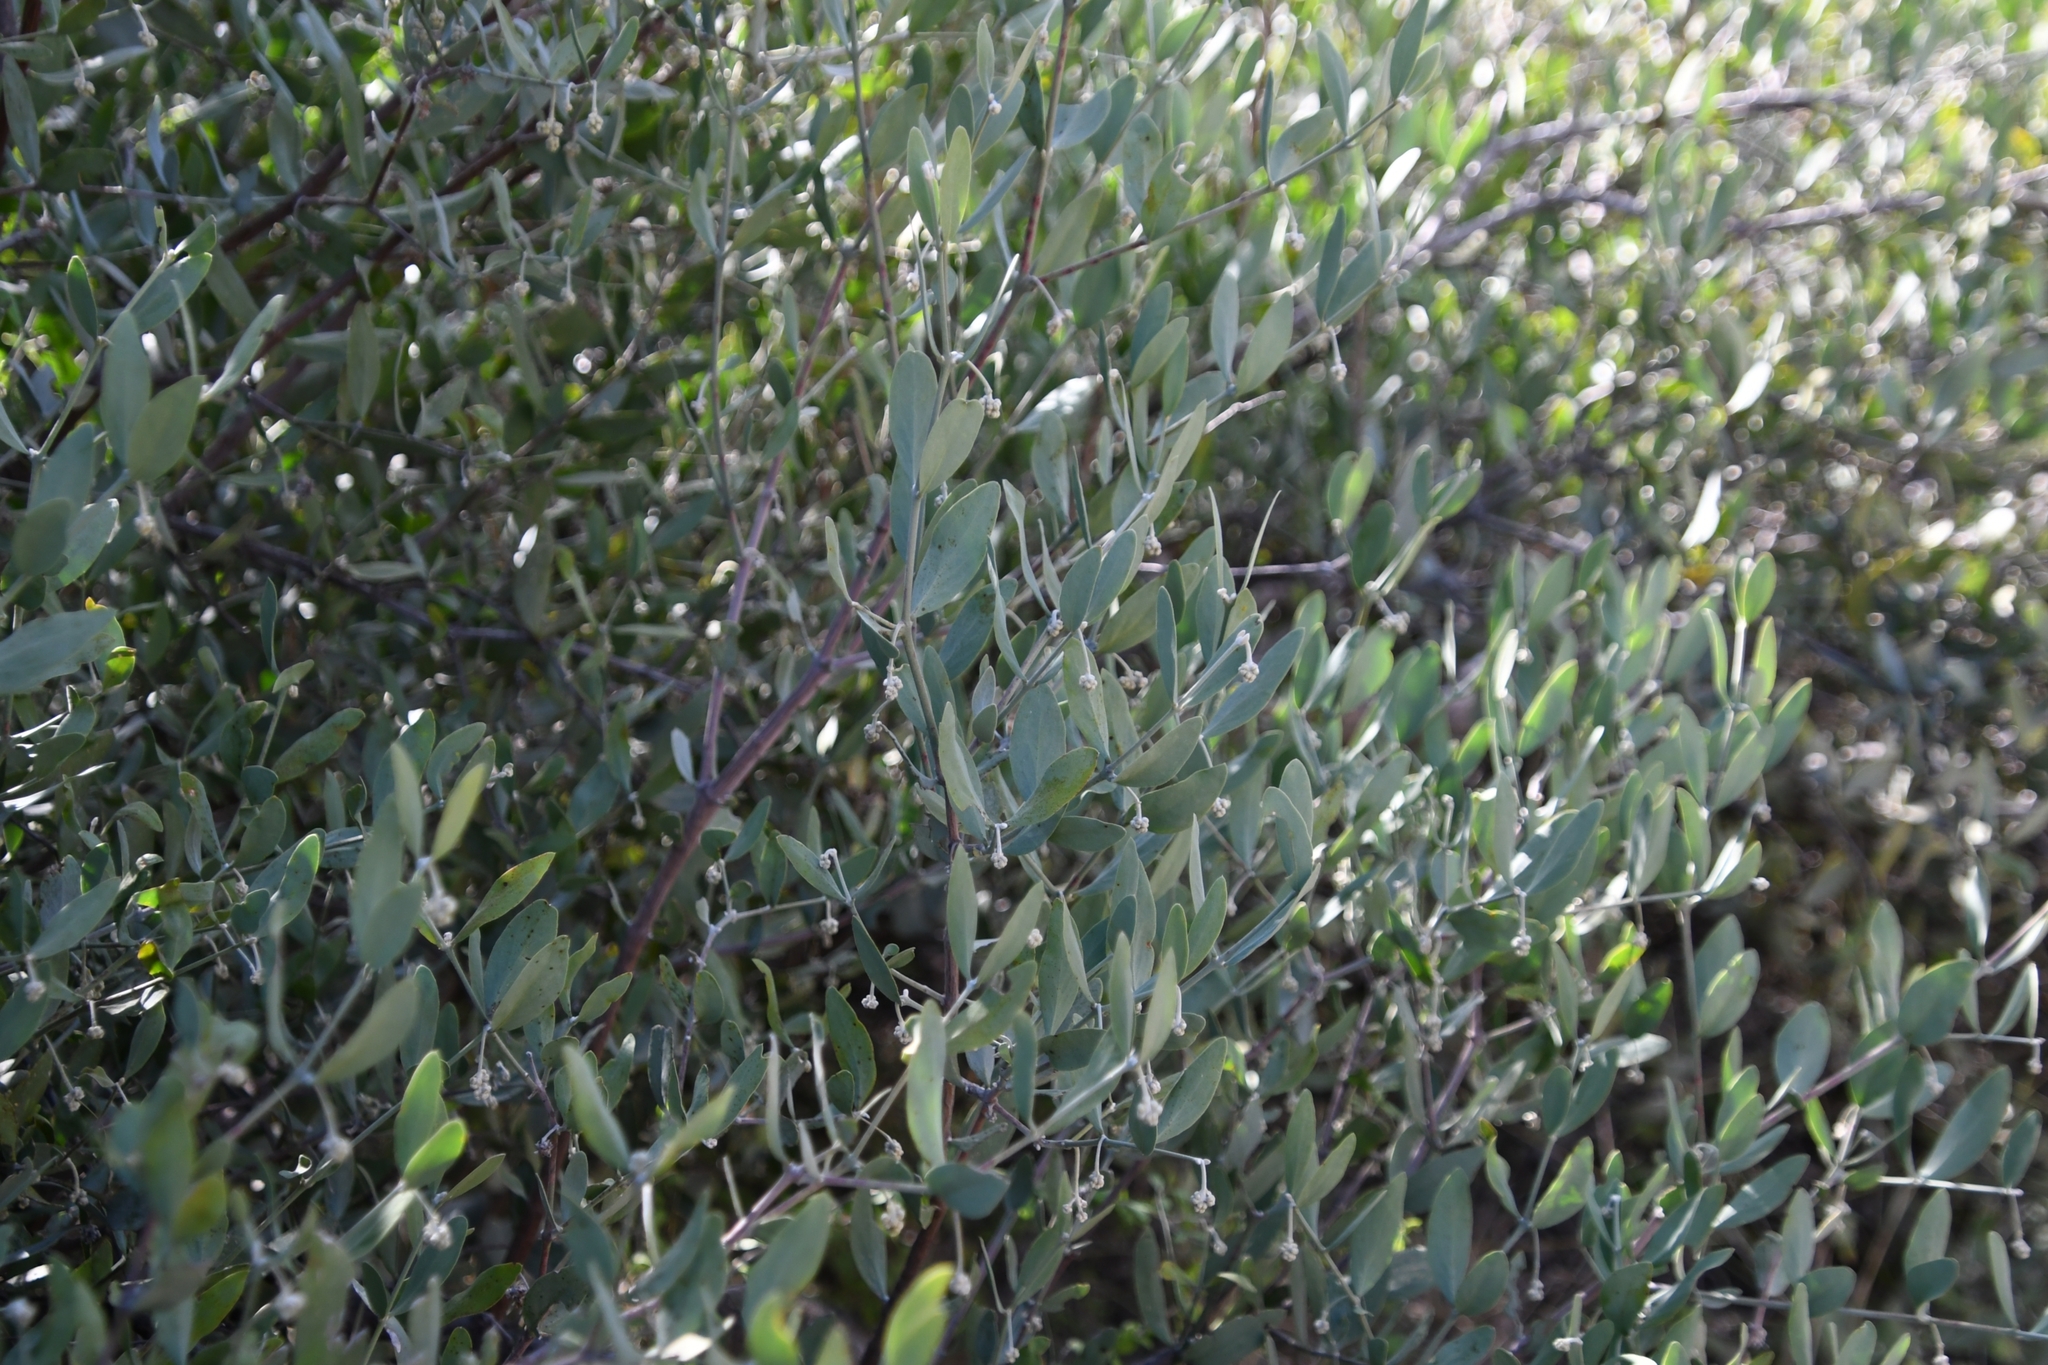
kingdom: Plantae
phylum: Tracheophyta
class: Magnoliopsida
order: Caryophyllales
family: Simmondsiaceae
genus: Simmondsia
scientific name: Simmondsia chinensis
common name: Jojoba
